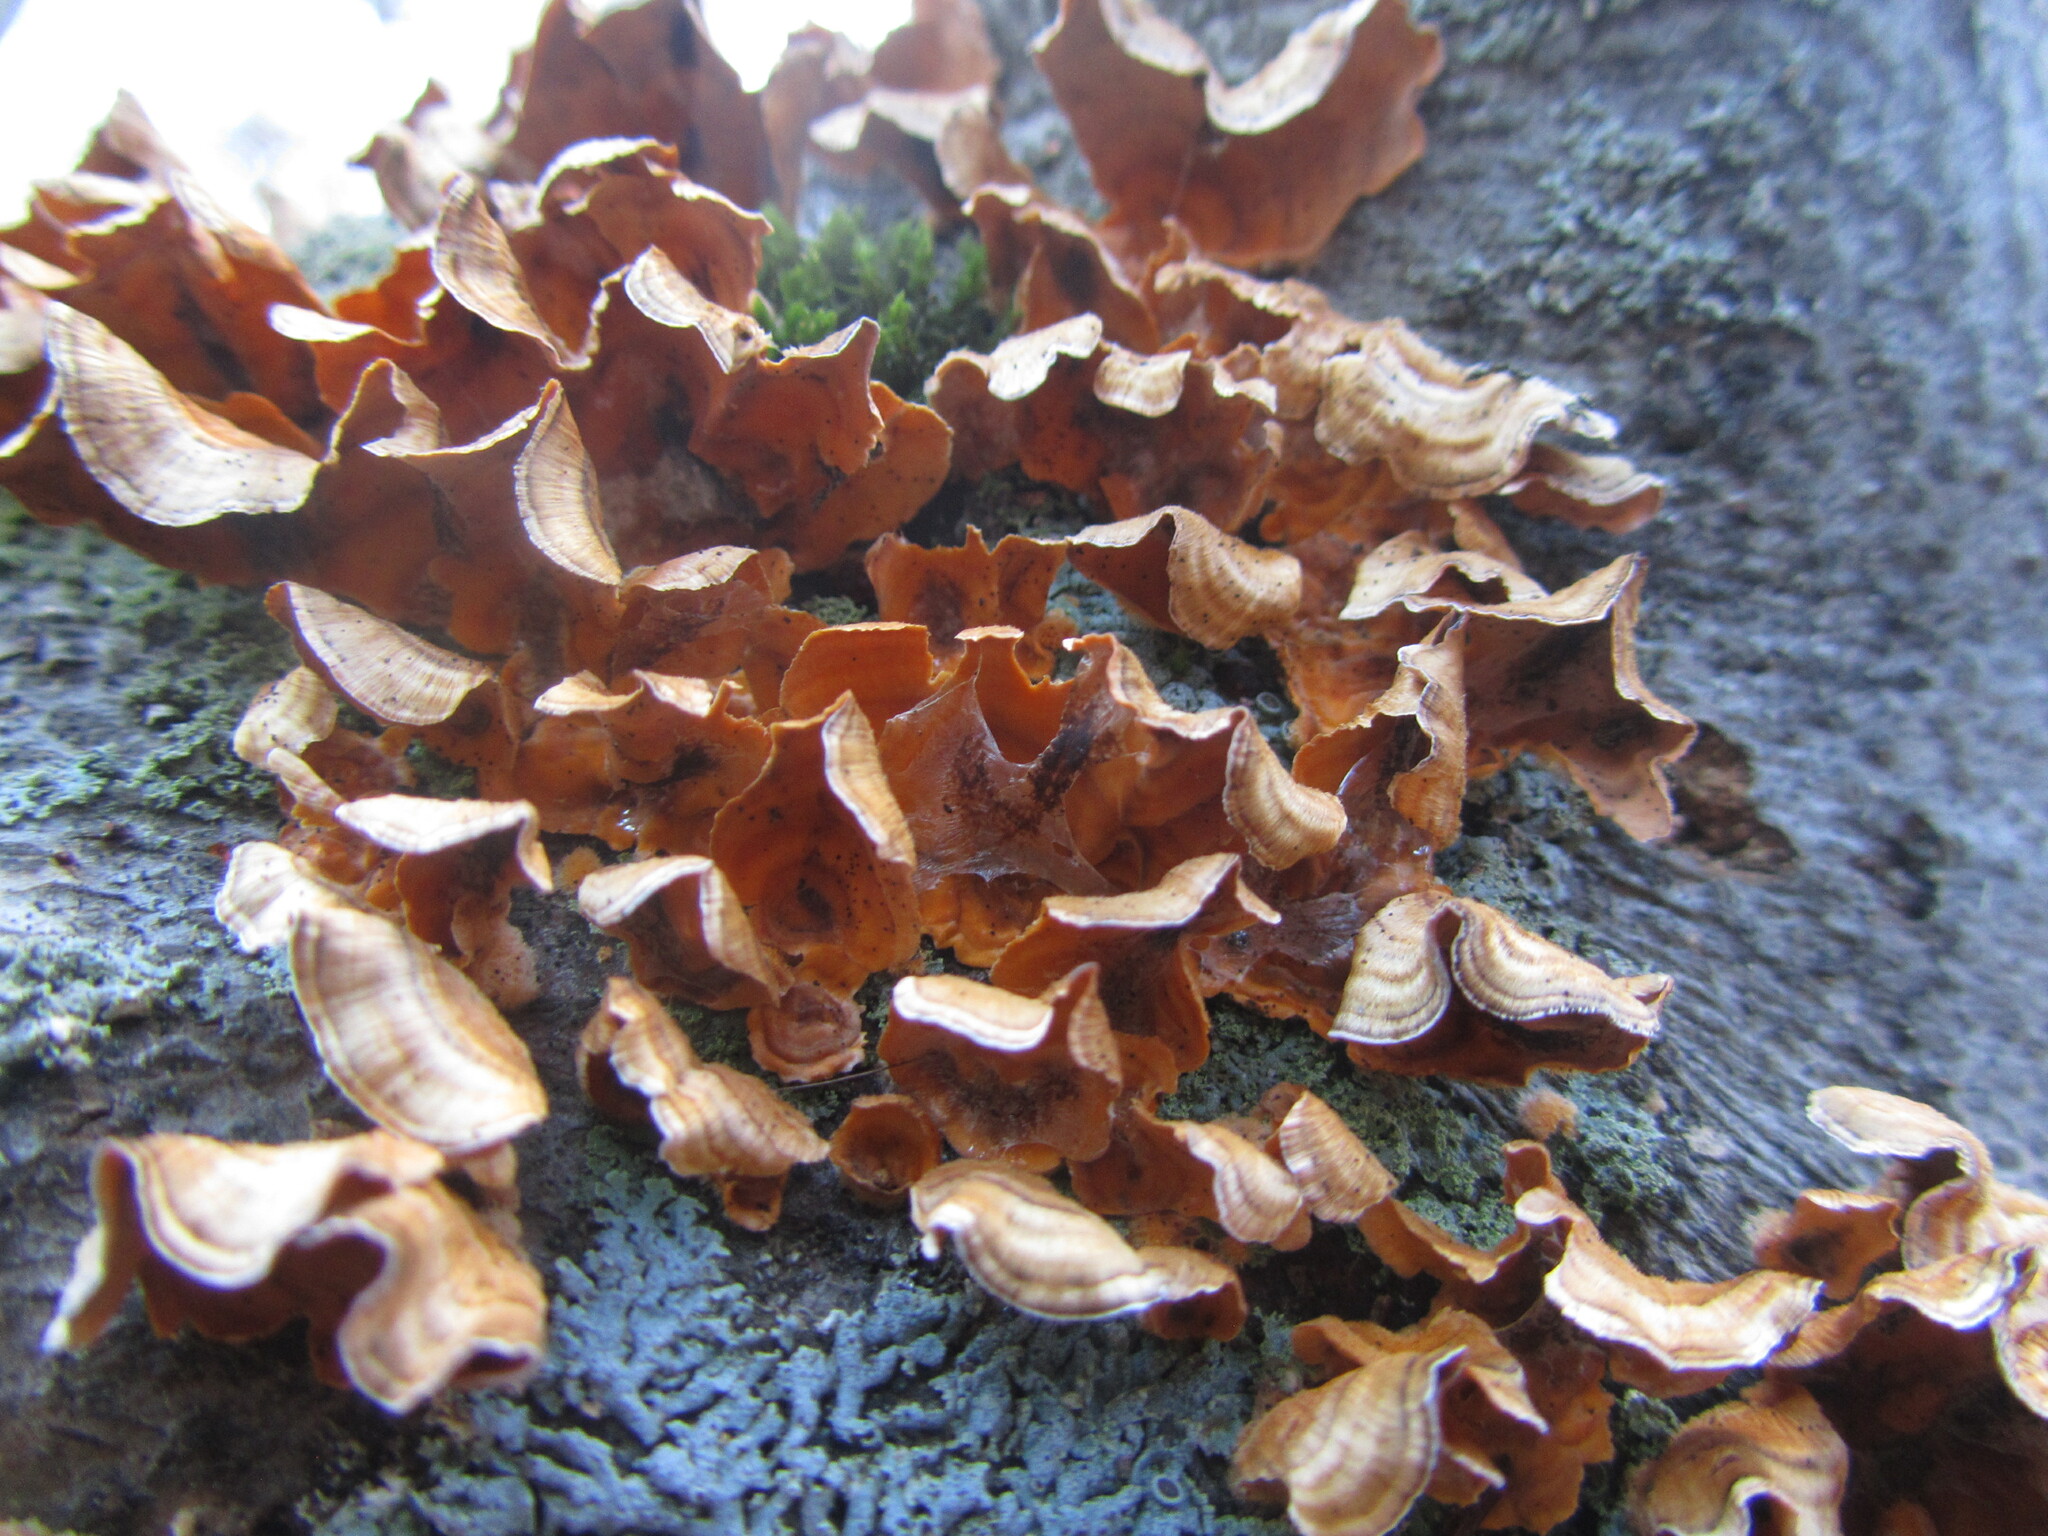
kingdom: Fungi
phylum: Basidiomycota
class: Agaricomycetes
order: Russulales
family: Stereaceae
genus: Stereum
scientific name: Stereum complicatum
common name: Crowded parchment
